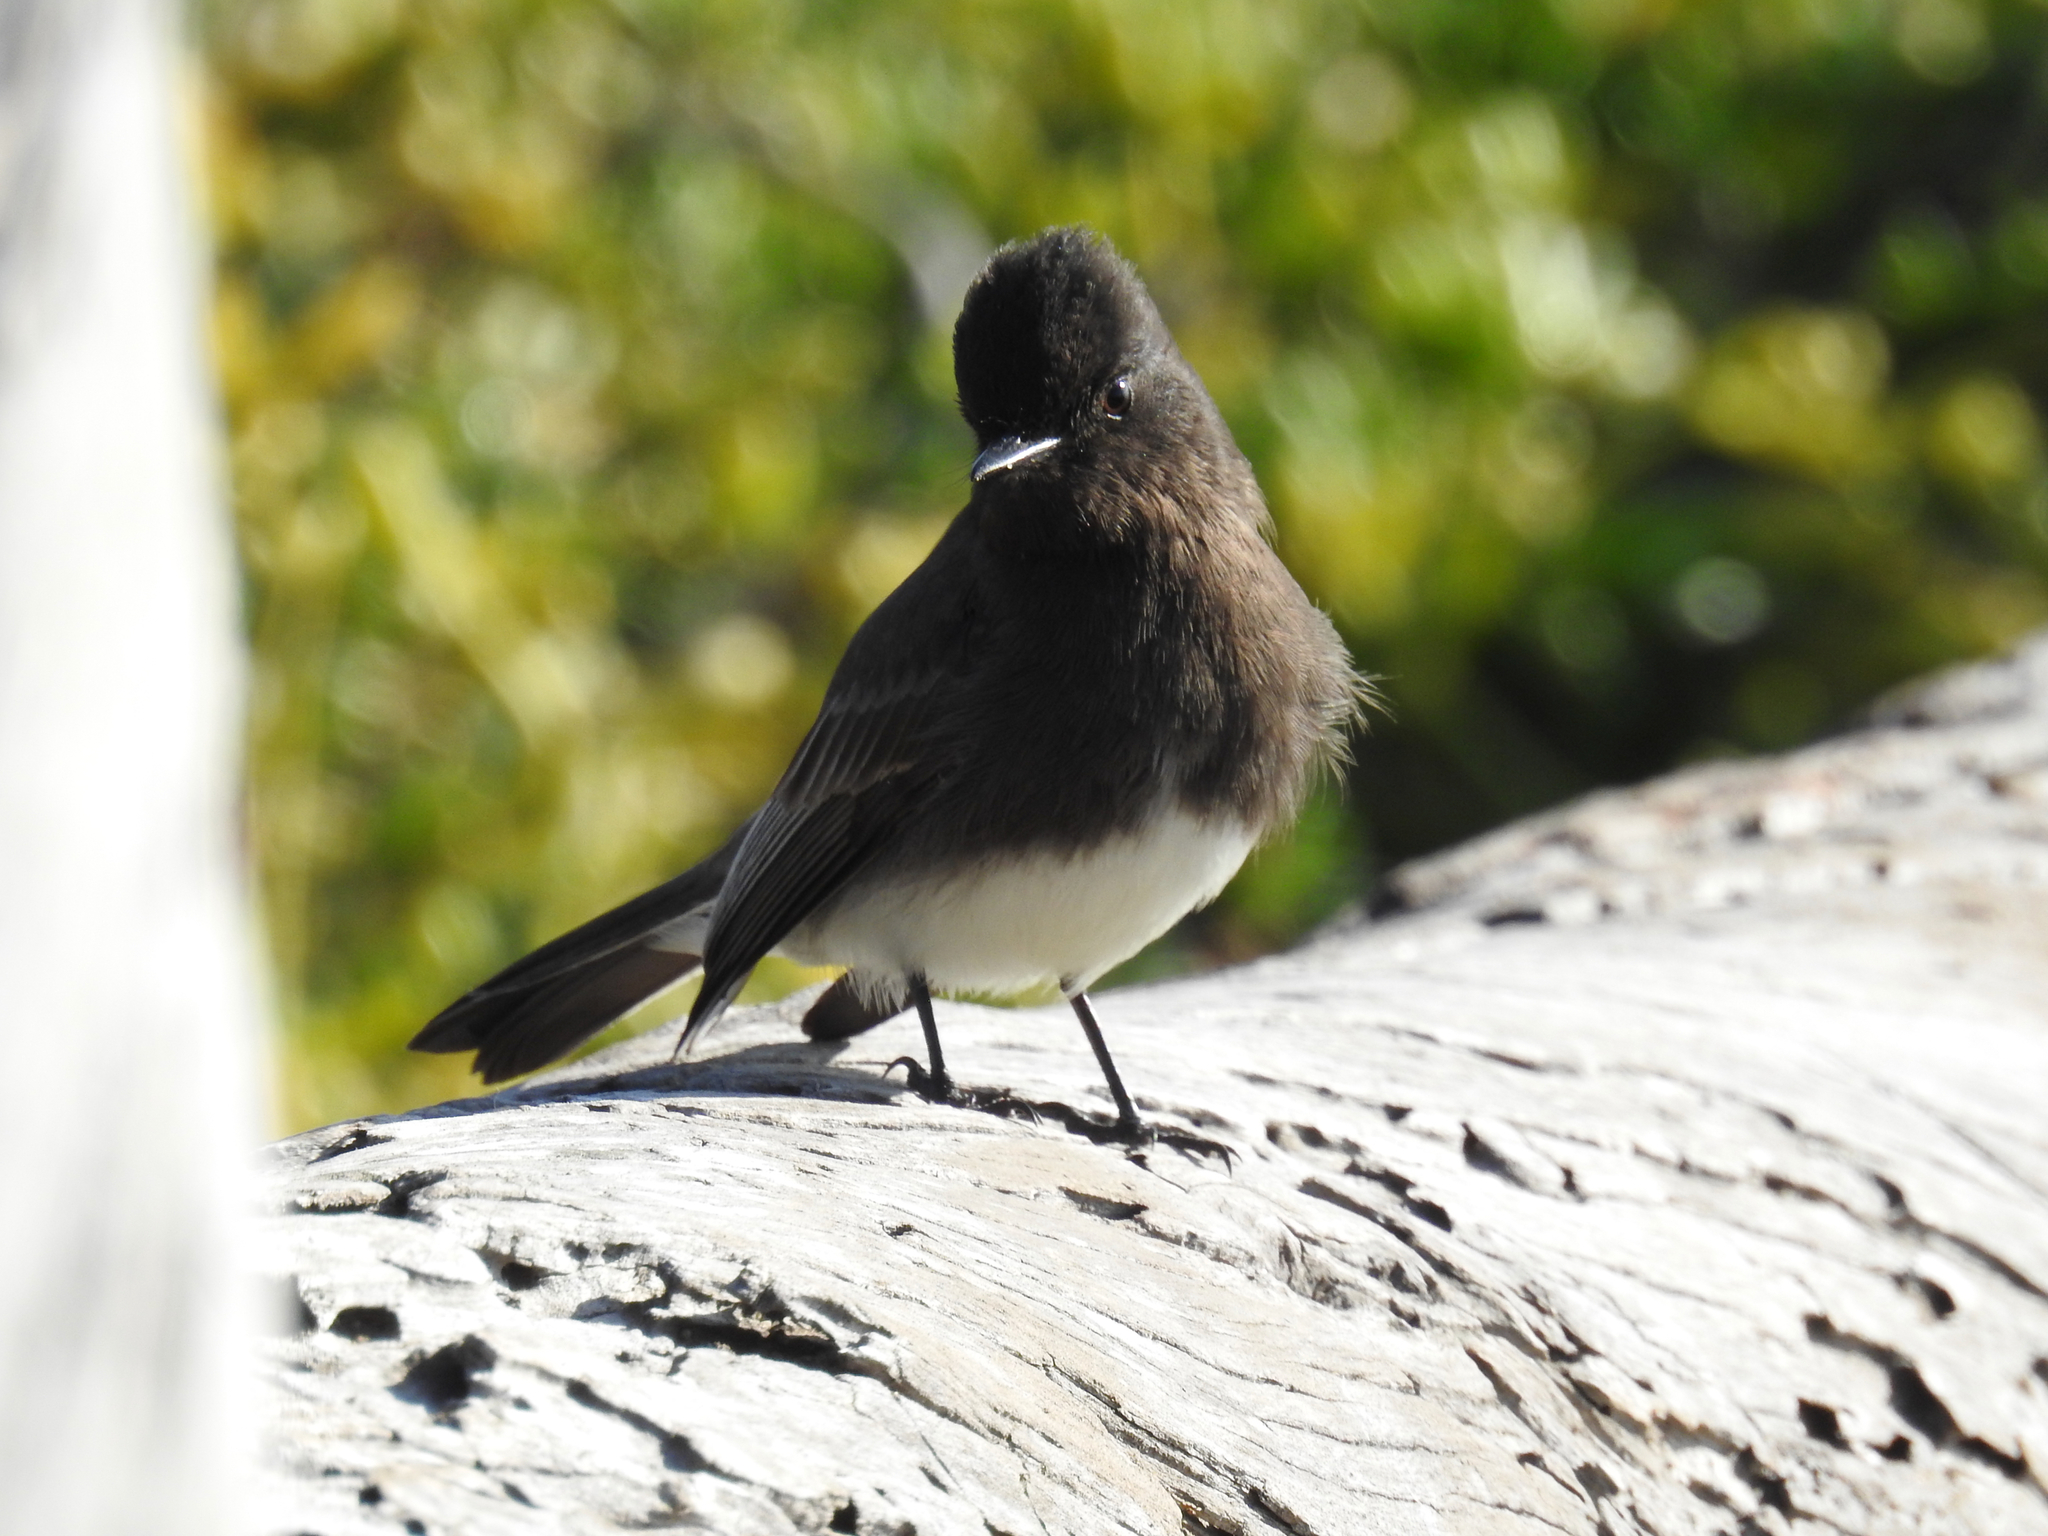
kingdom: Animalia
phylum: Chordata
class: Aves
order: Passeriformes
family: Tyrannidae
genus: Sayornis
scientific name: Sayornis nigricans
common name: Black phoebe
